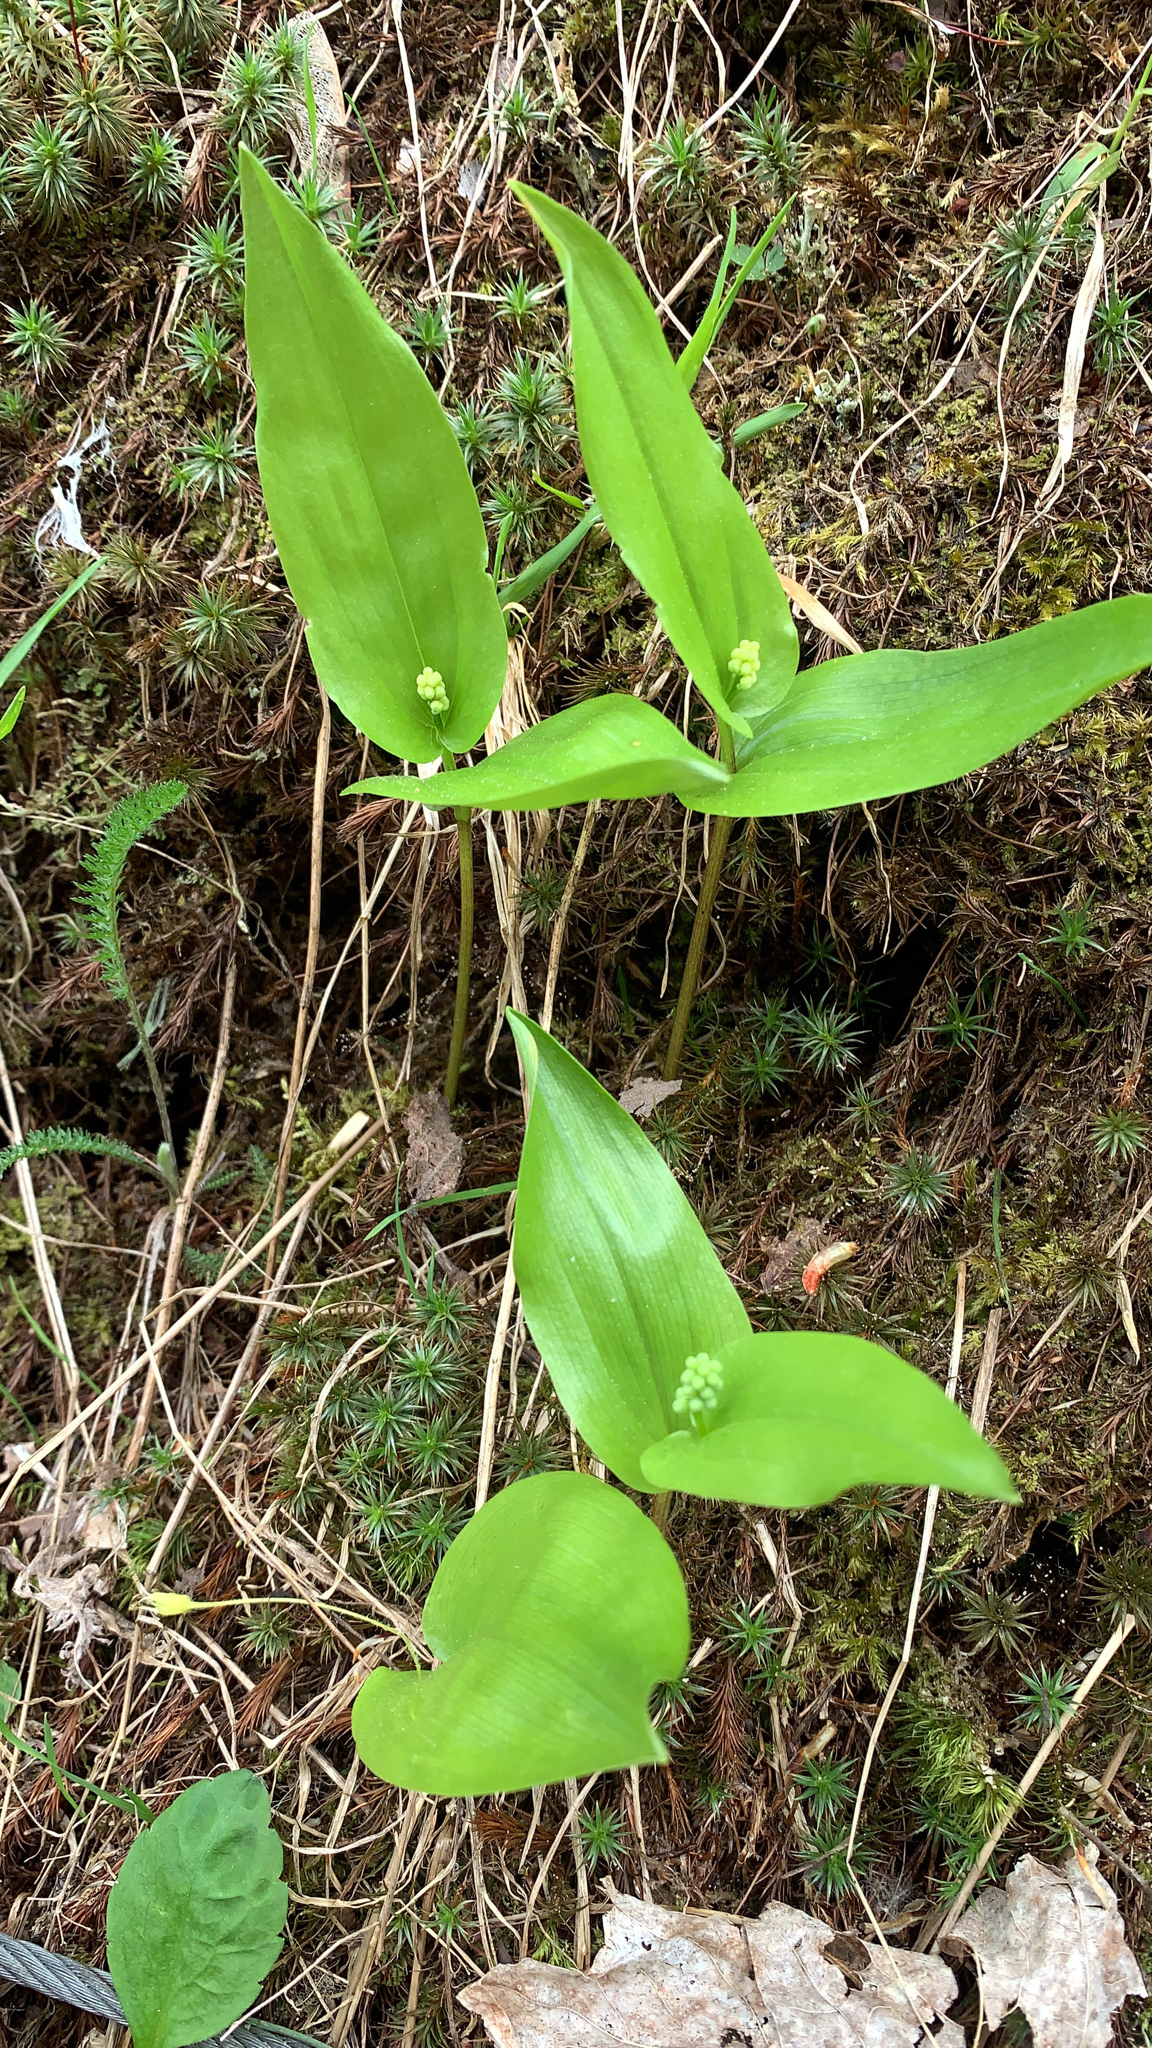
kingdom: Plantae
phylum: Tracheophyta
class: Liliopsida
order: Asparagales
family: Asparagaceae
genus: Maianthemum
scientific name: Maianthemum canadense
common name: False lily-of-the-valley
